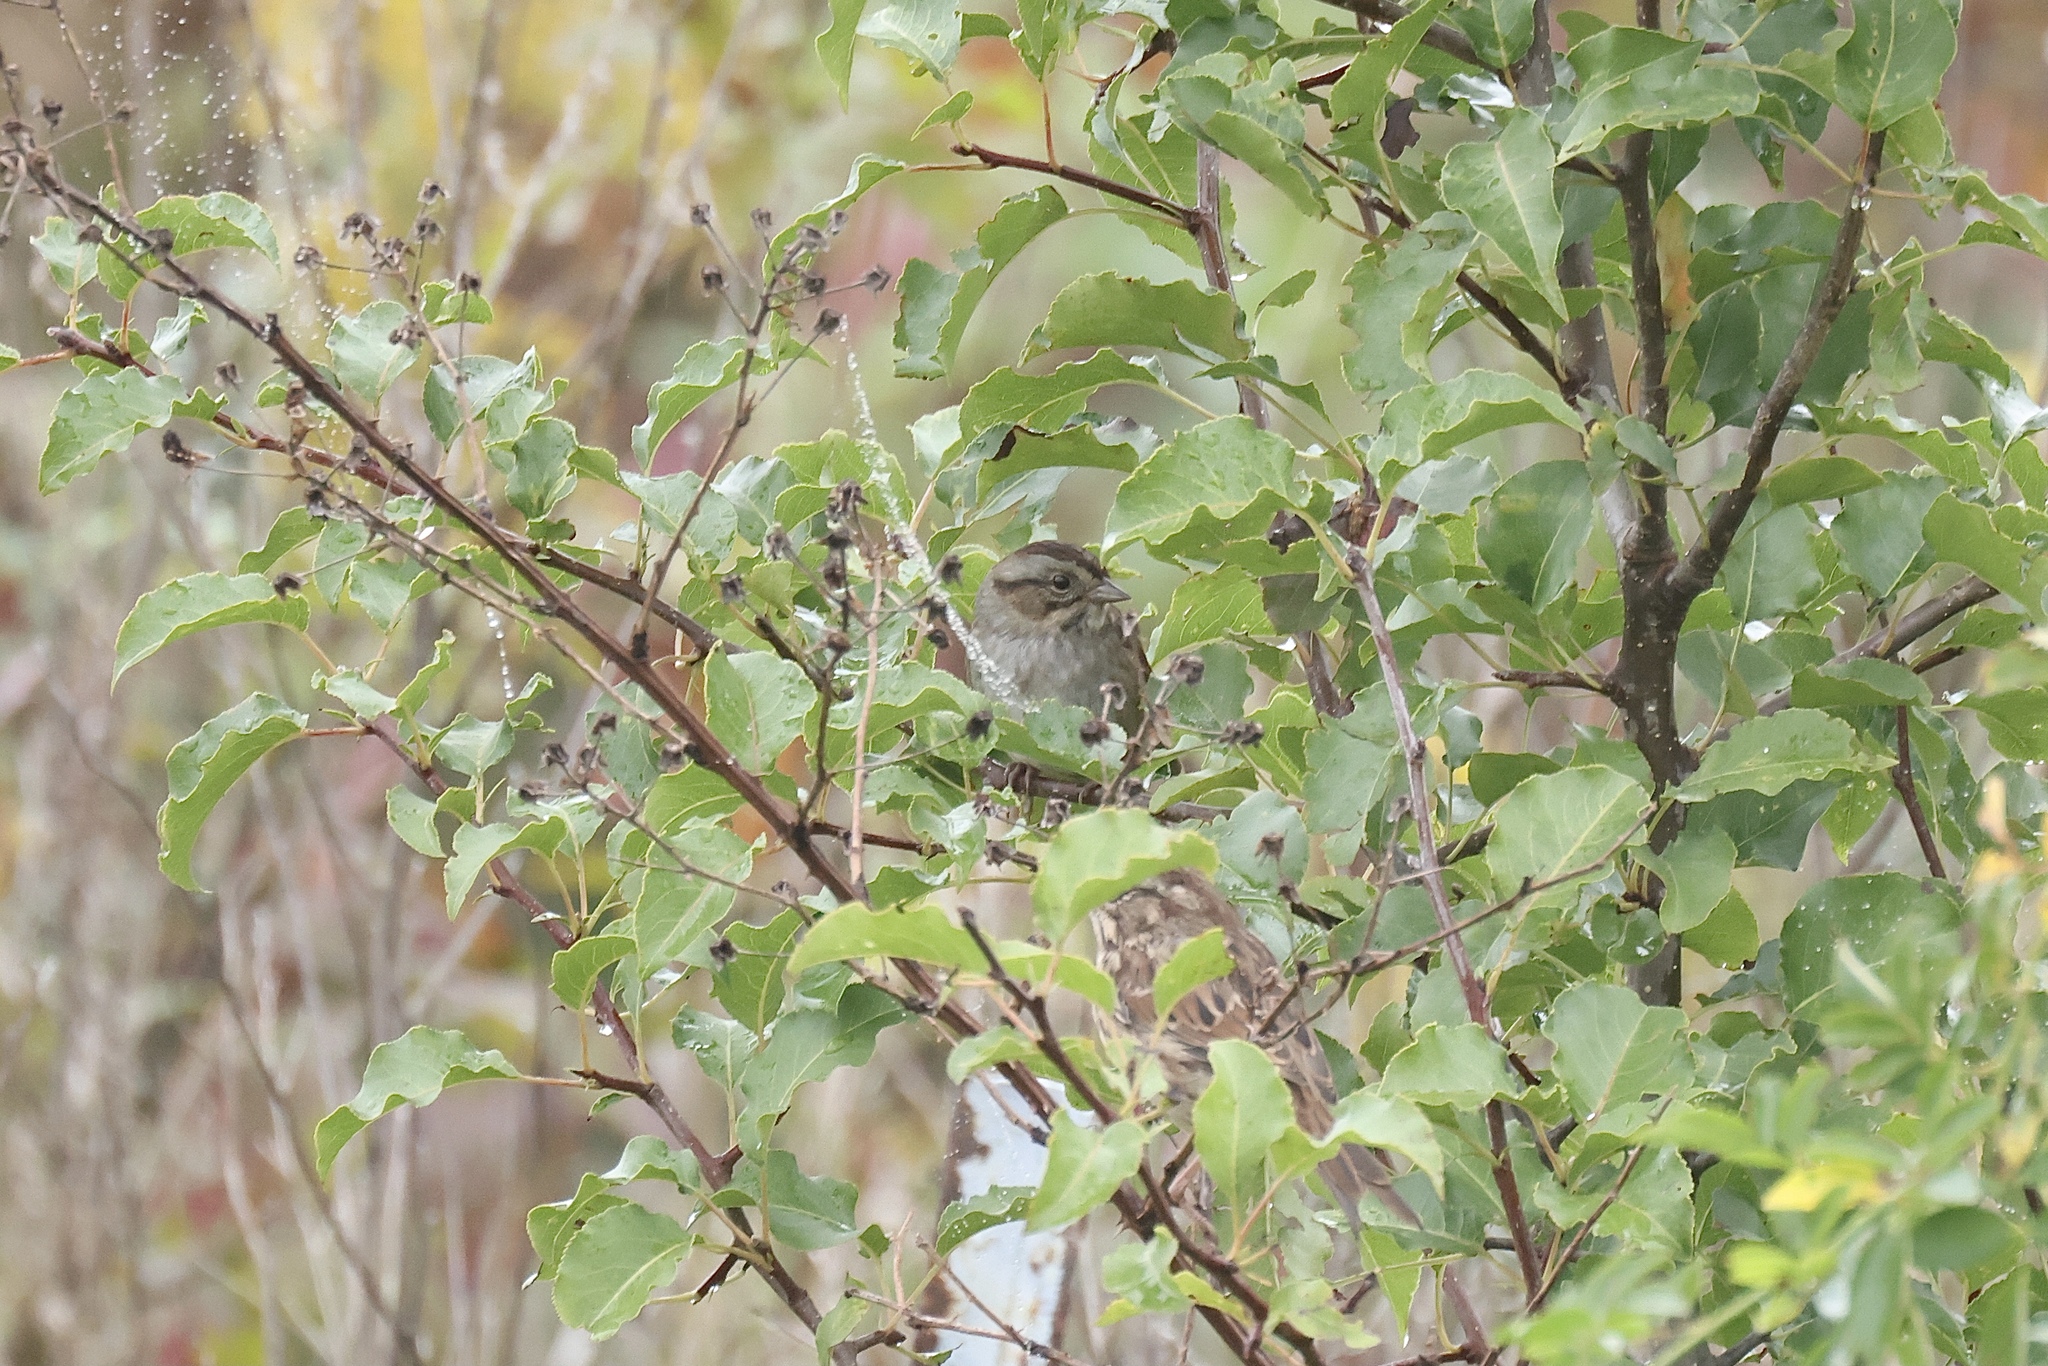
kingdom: Animalia
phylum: Chordata
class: Aves
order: Passeriformes
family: Passerellidae
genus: Melospiza
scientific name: Melospiza georgiana
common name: Swamp sparrow
